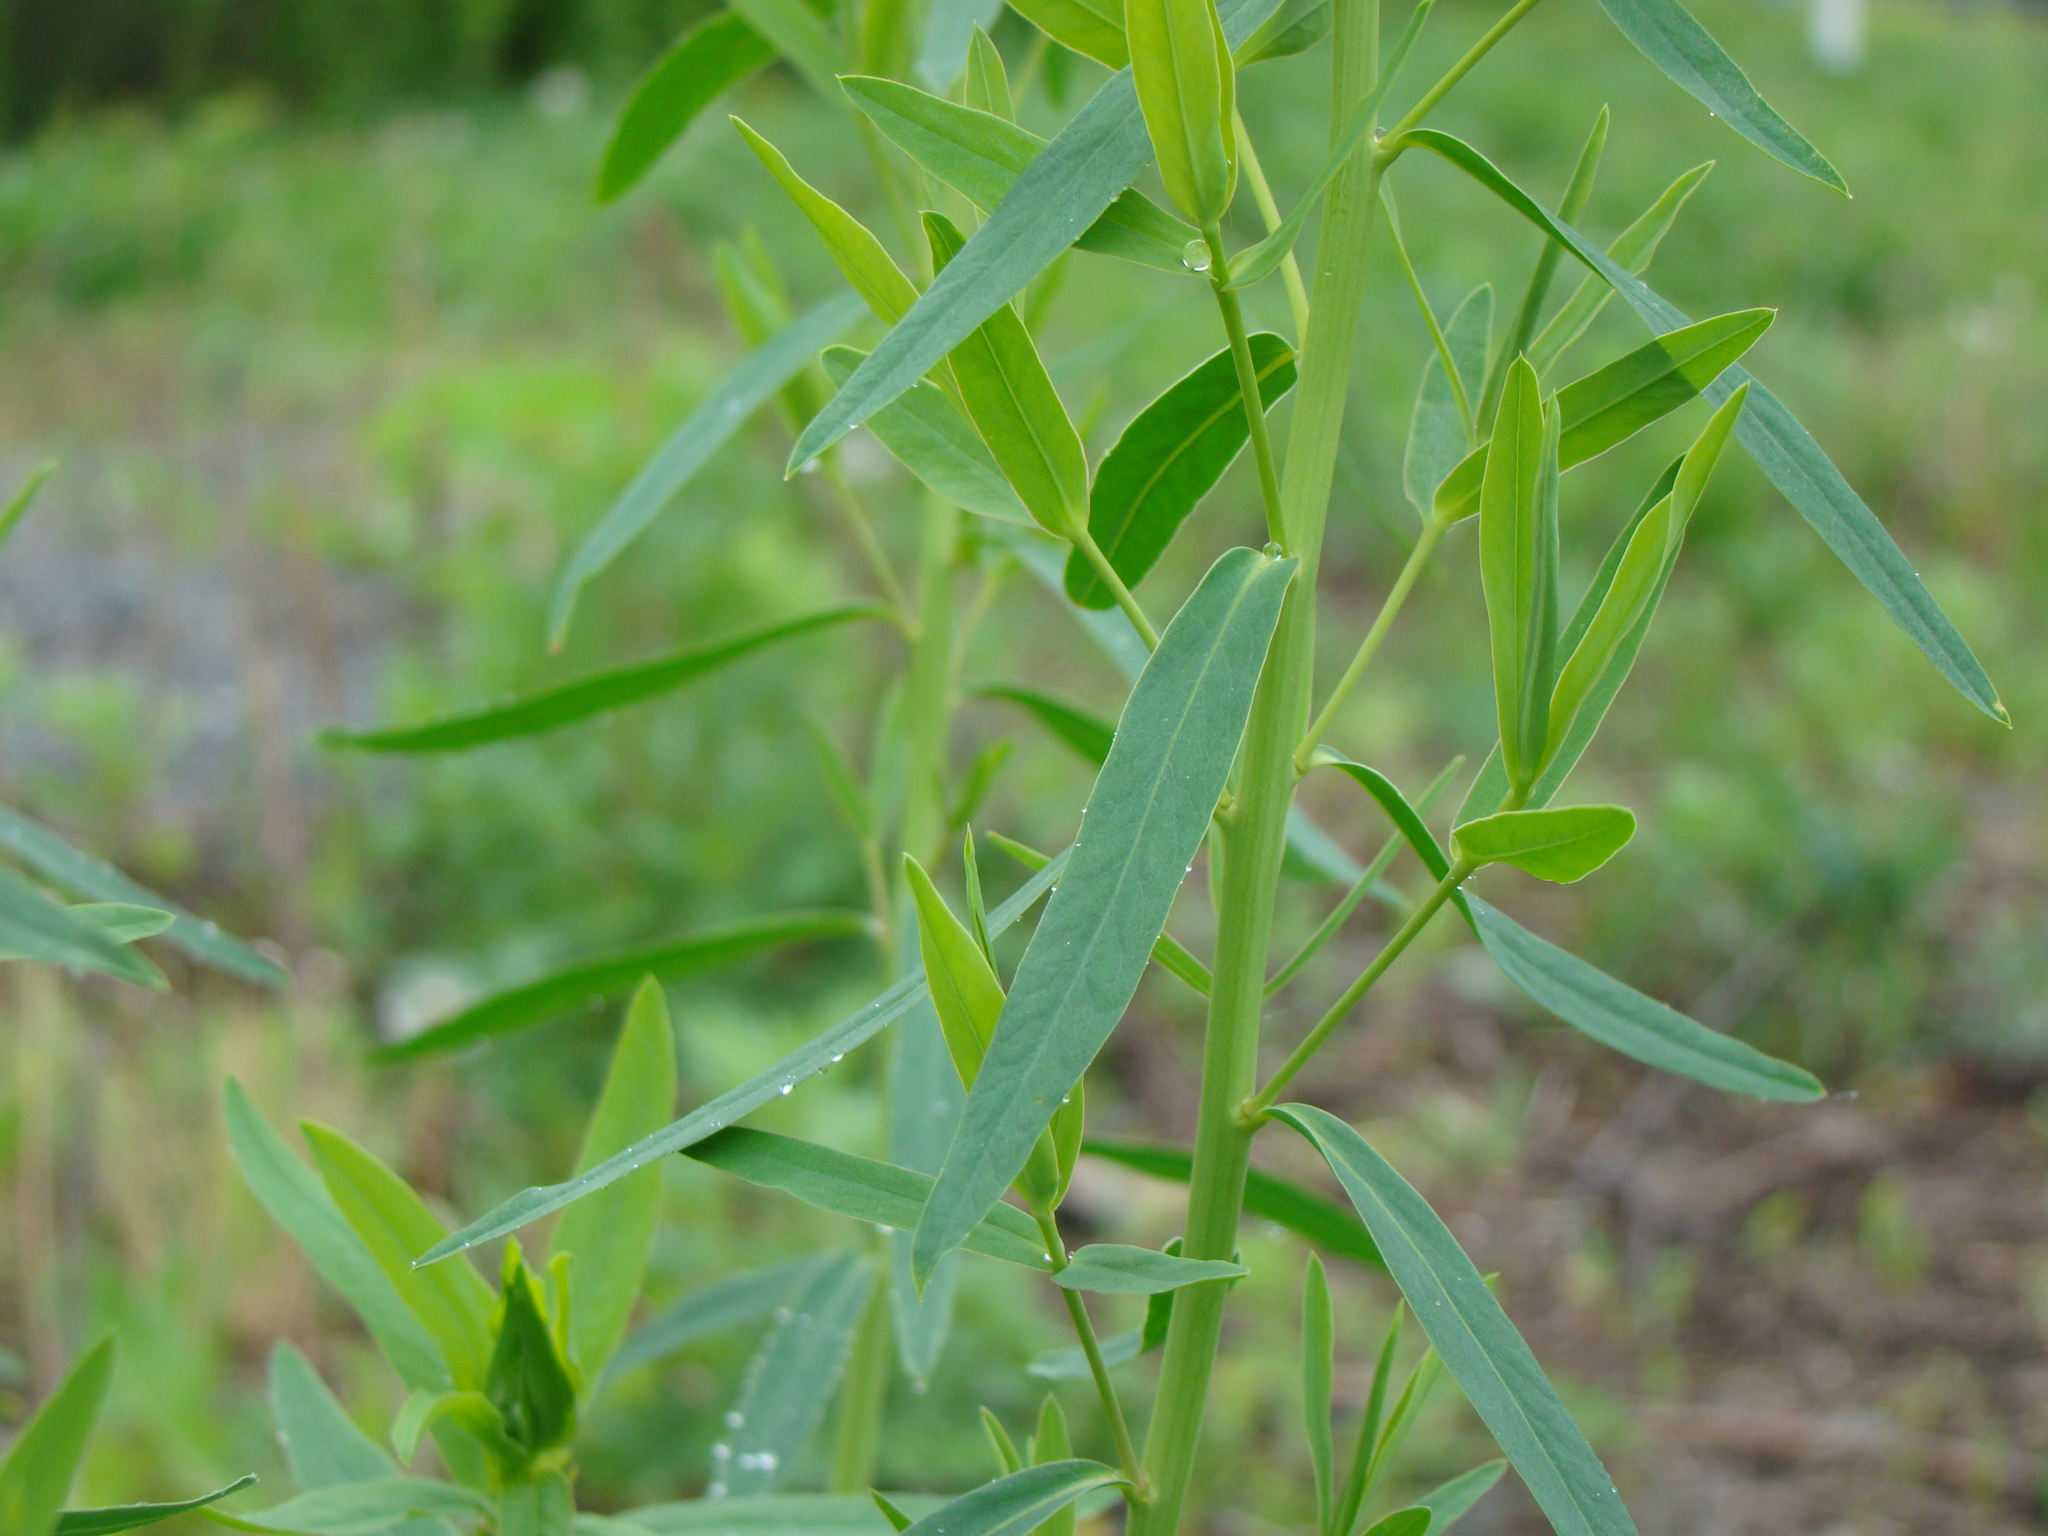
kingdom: Plantae
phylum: Tracheophyta
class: Magnoliopsida
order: Malpighiales
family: Euphorbiaceae
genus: Euphorbia
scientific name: Euphorbia virgata
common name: Leafy spurge
